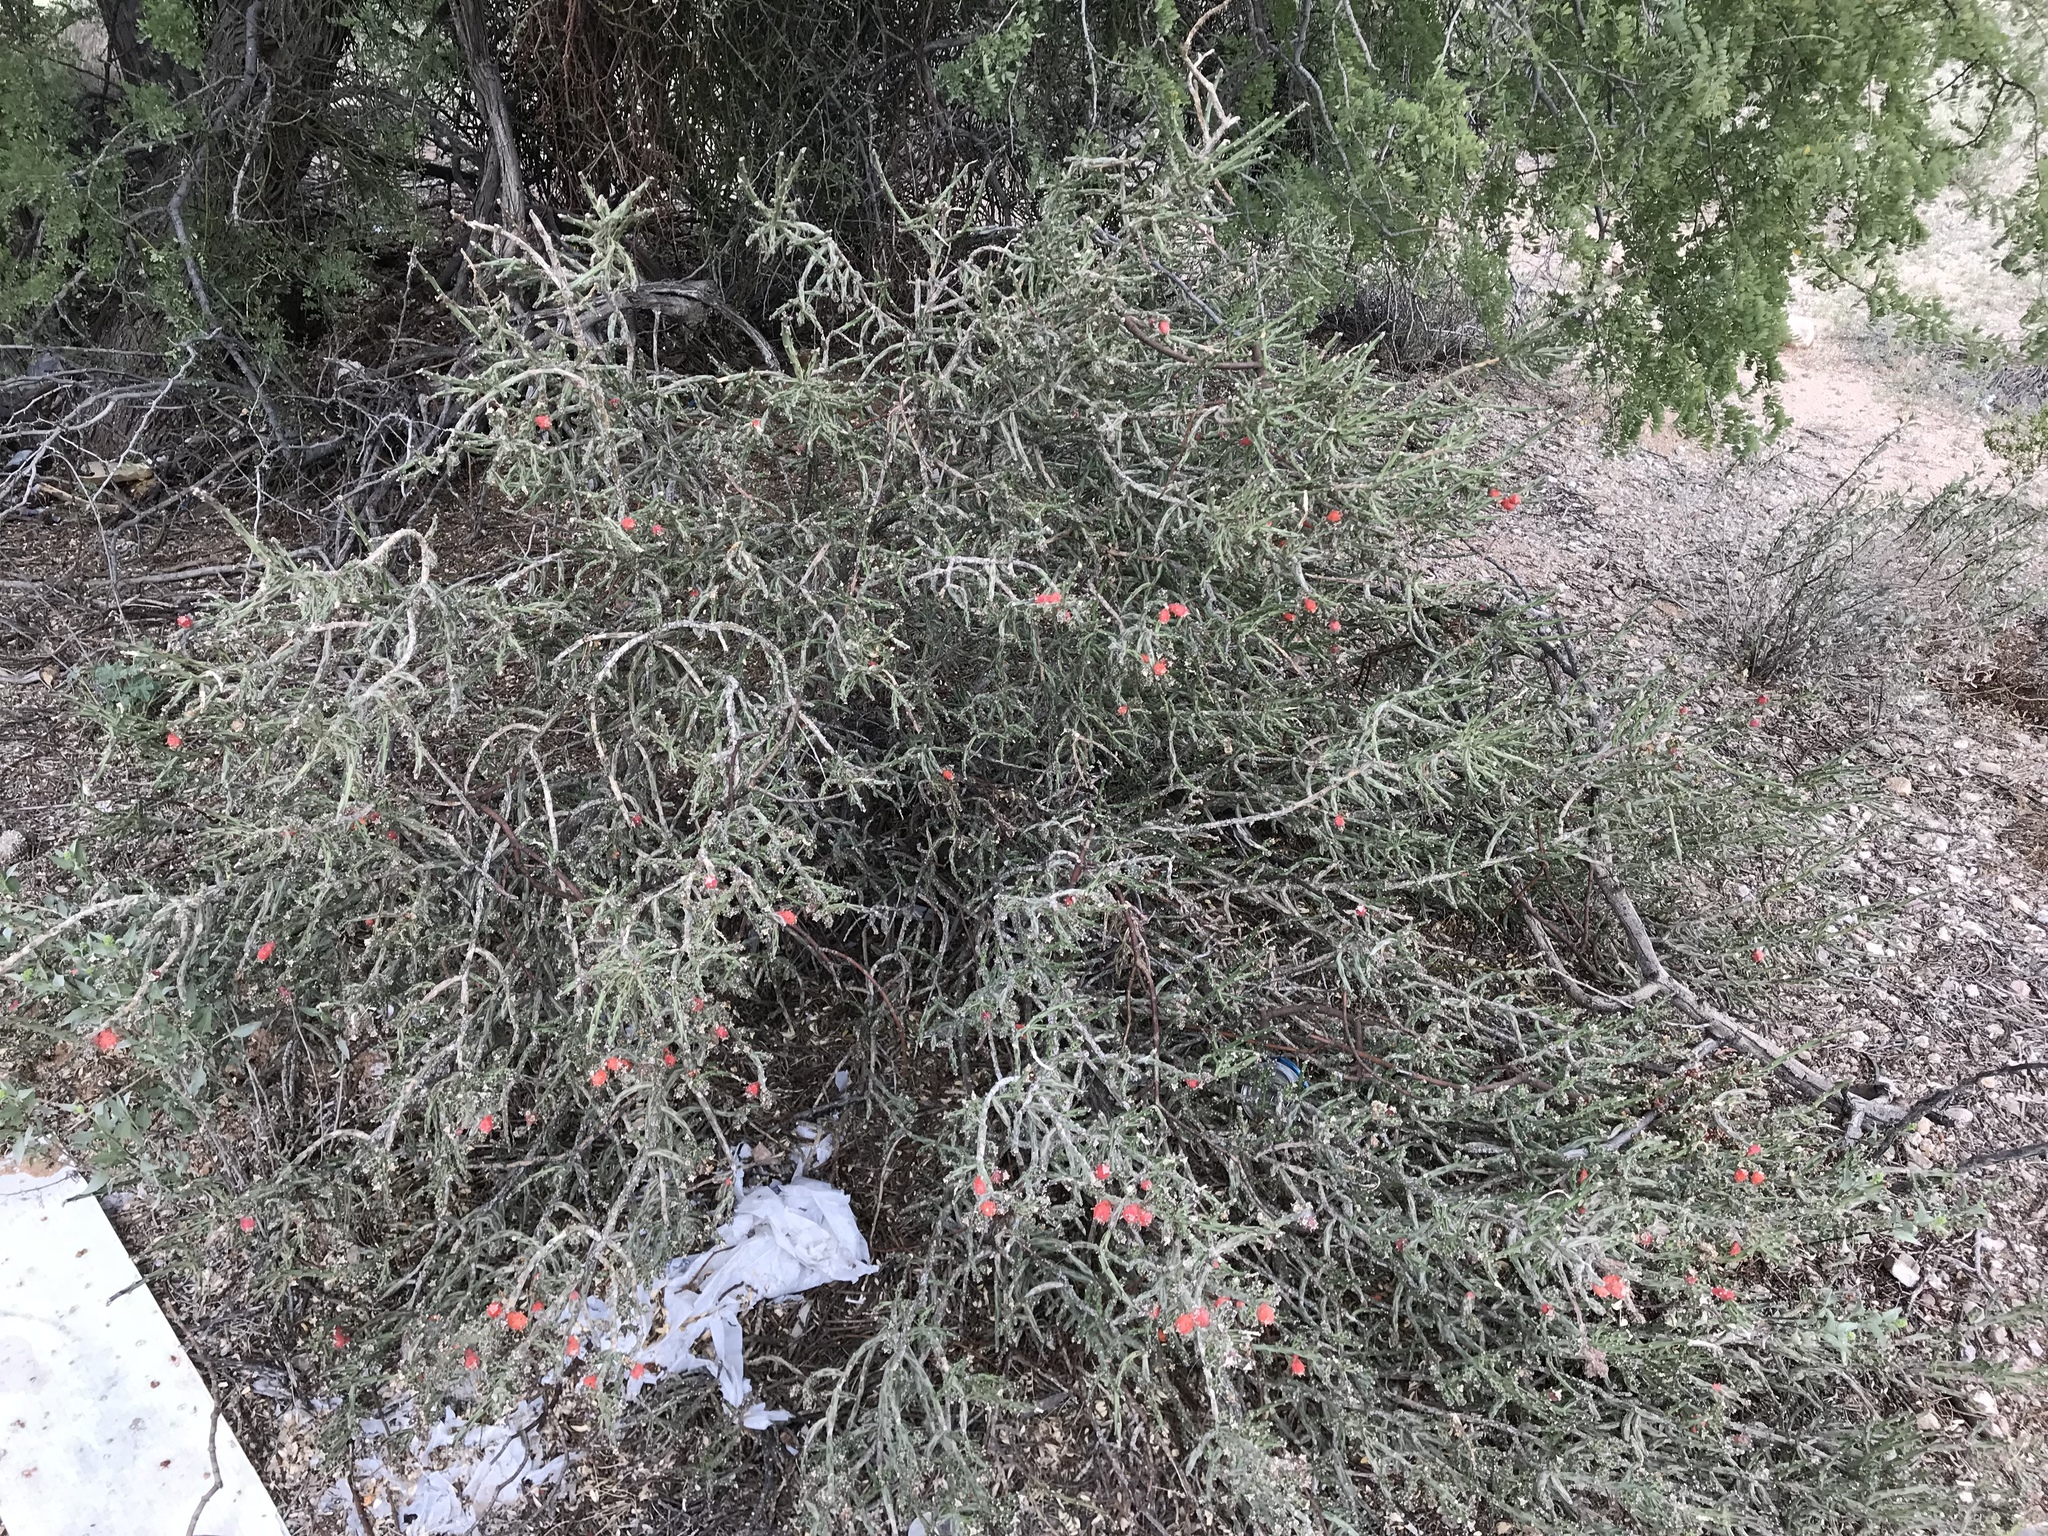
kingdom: Plantae
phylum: Tracheophyta
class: Magnoliopsida
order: Caryophyllales
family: Cactaceae
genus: Cylindropuntia
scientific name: Cylindropuntia leptocaulis
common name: Christmas cactus
